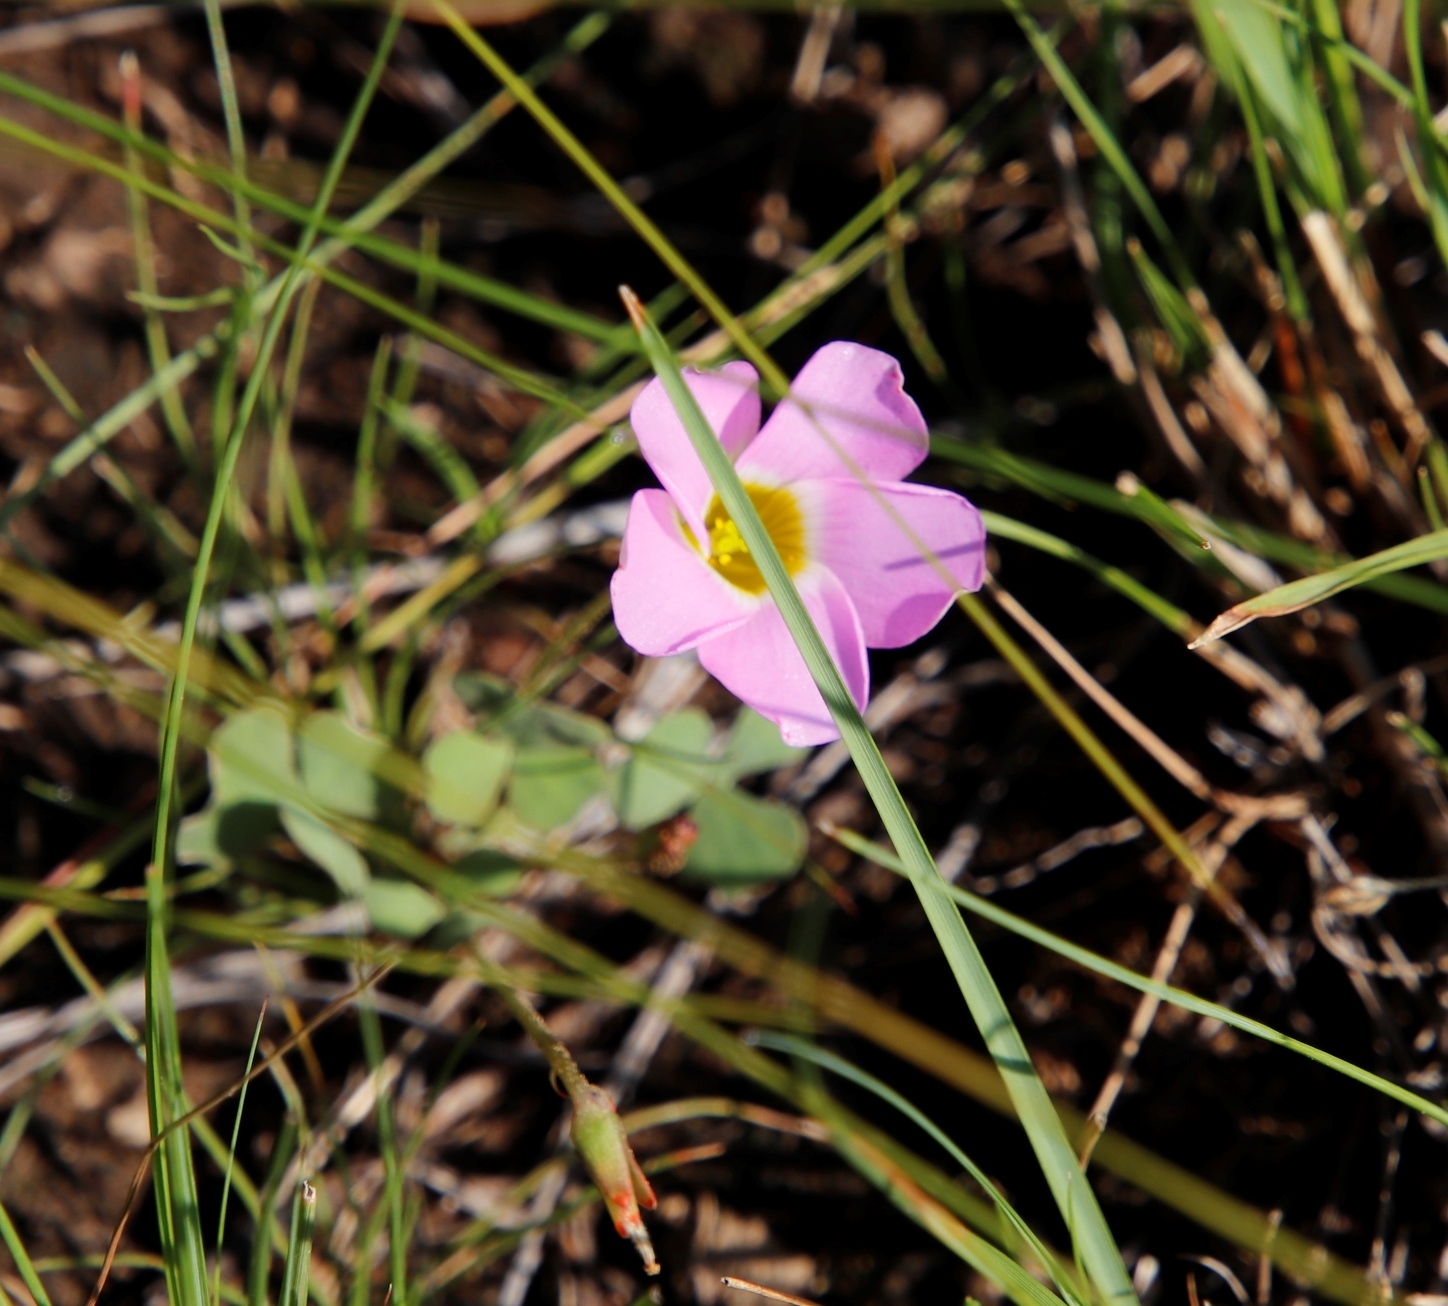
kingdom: Plantae
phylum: Tracheophyta
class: Magnoliopsida
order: Oxalidales
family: Oxalidaceae
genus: Oxalis
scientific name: Oxalis obliquifolia
